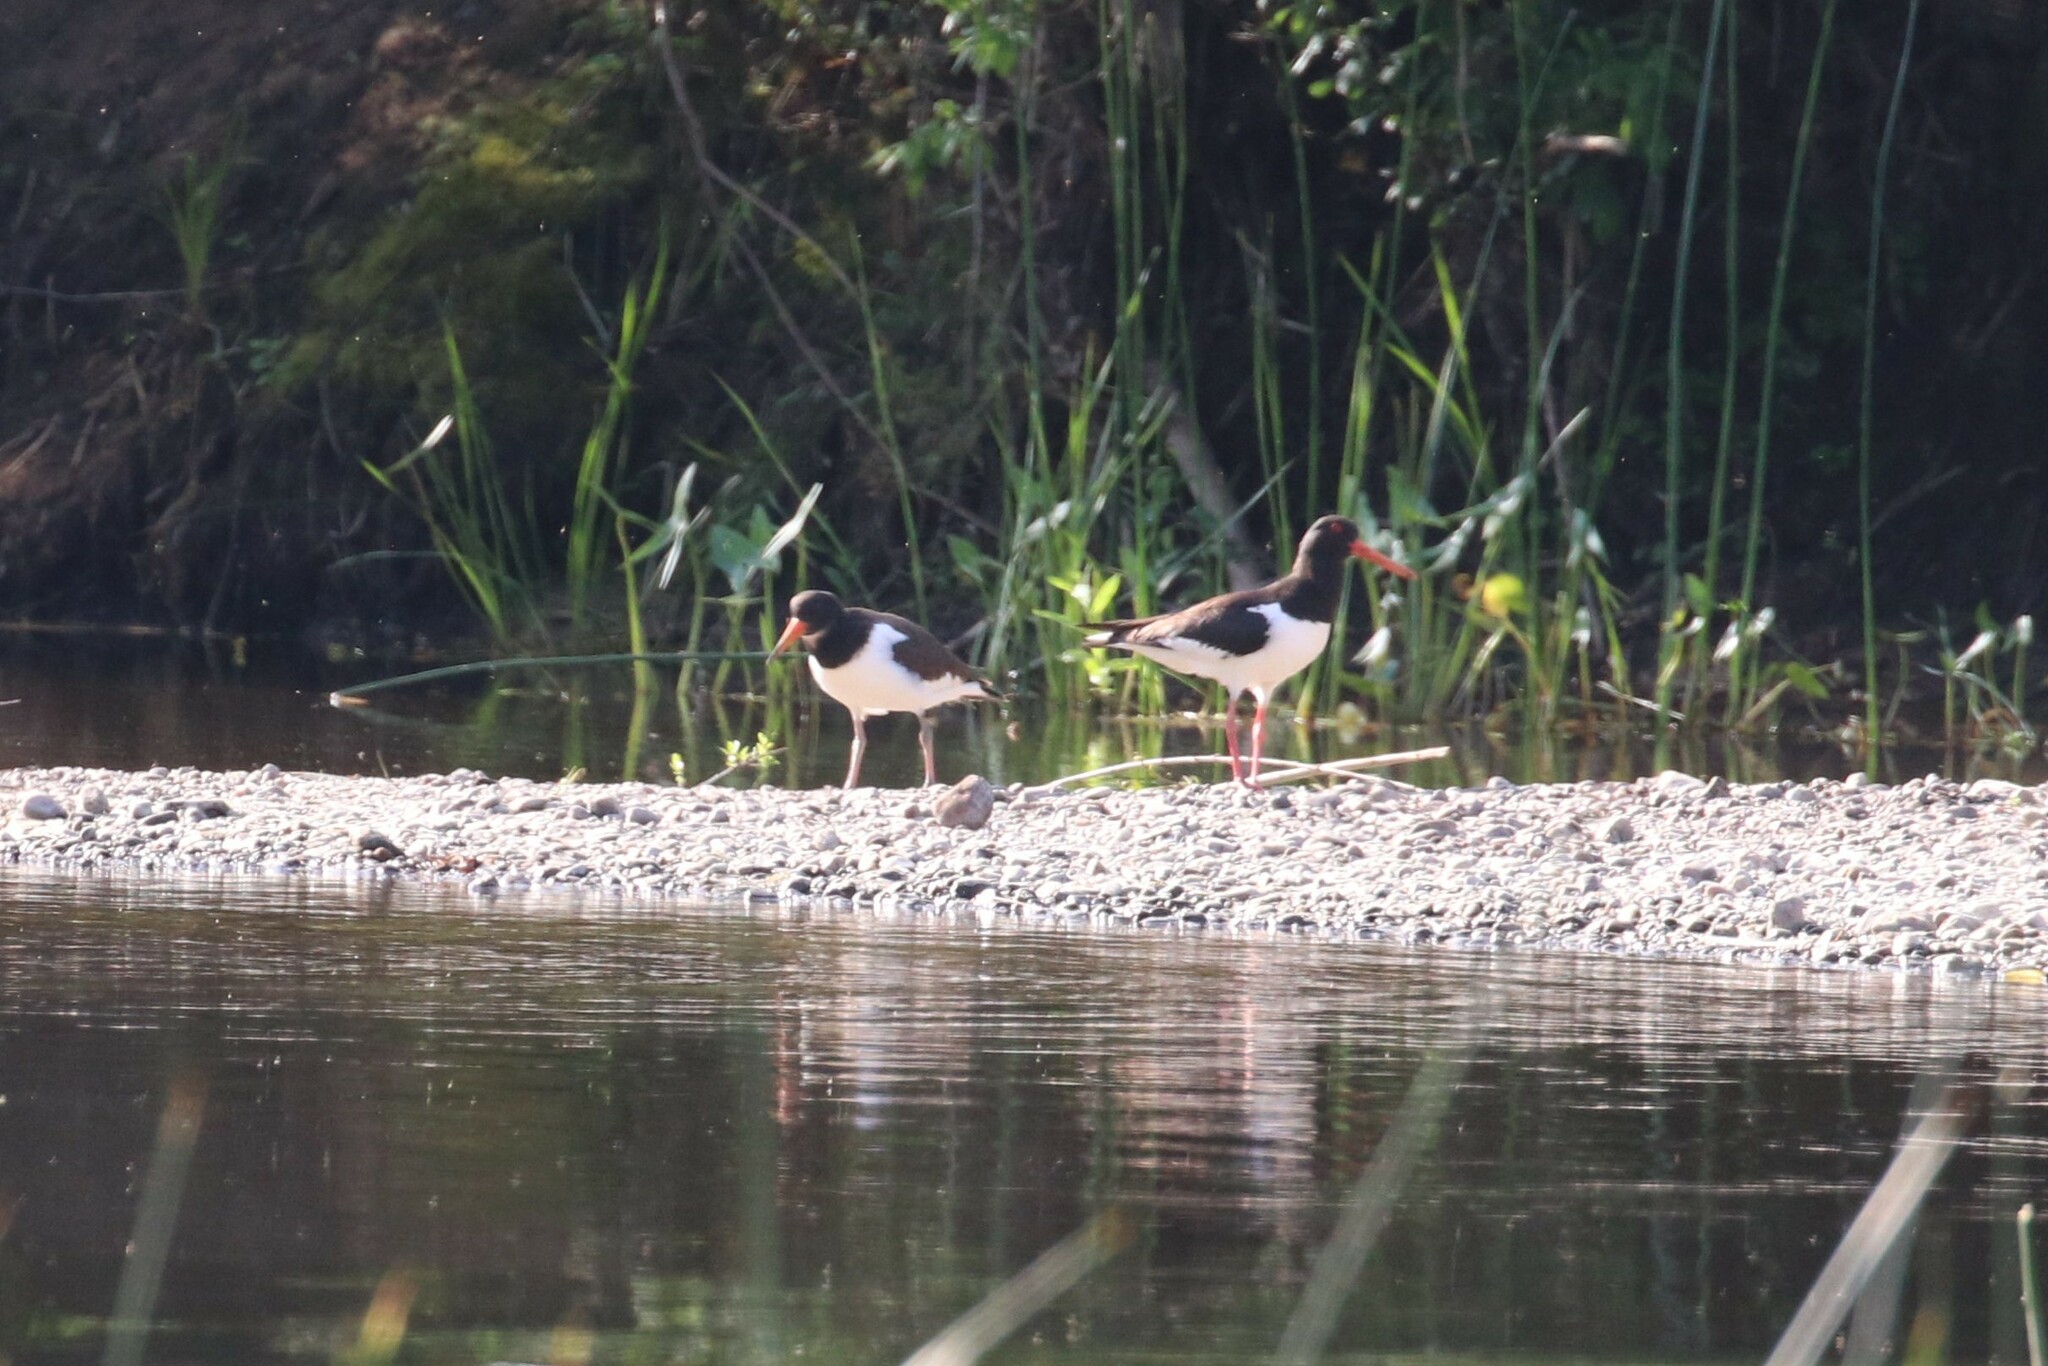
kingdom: Animalia
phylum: Chordata
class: Aves
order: Charadriiformes
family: Haematopodidae
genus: Haematopus
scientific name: Haematopus ostralegus
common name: Eurasian oystercatcher
